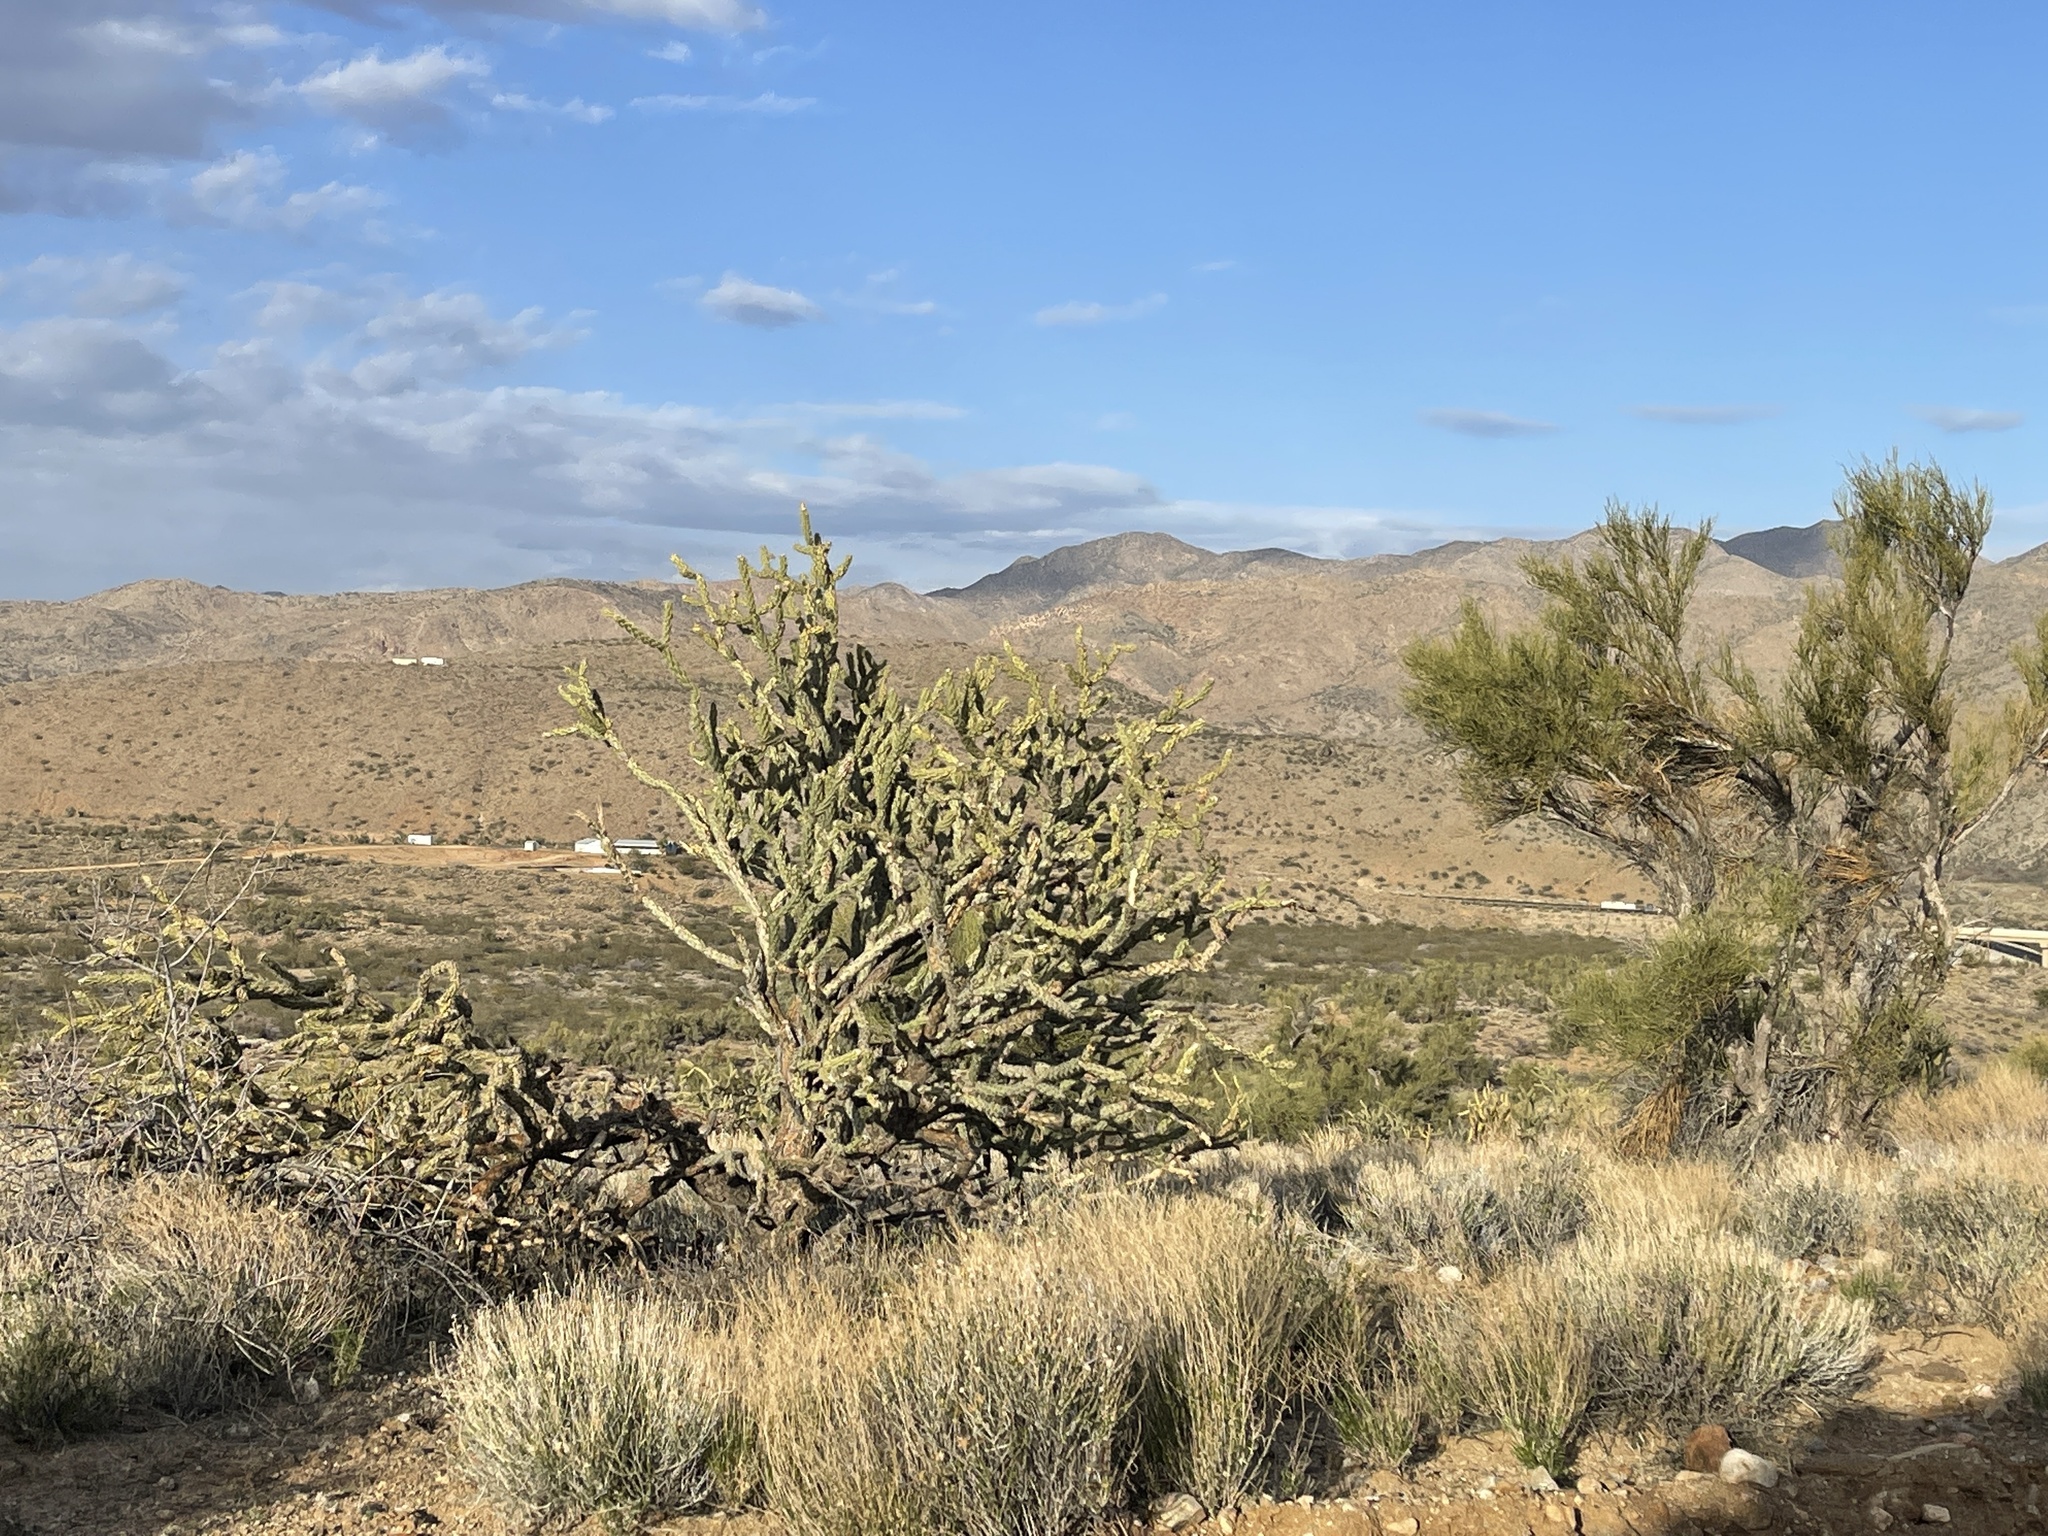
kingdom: Plantae
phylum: Tracheophyta
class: Magnoliopsida
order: Caryophyllales
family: Cactaceae
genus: Cylindropuntia
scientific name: Cylindropuntia acanthocarpa
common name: Buckhorn cholla
